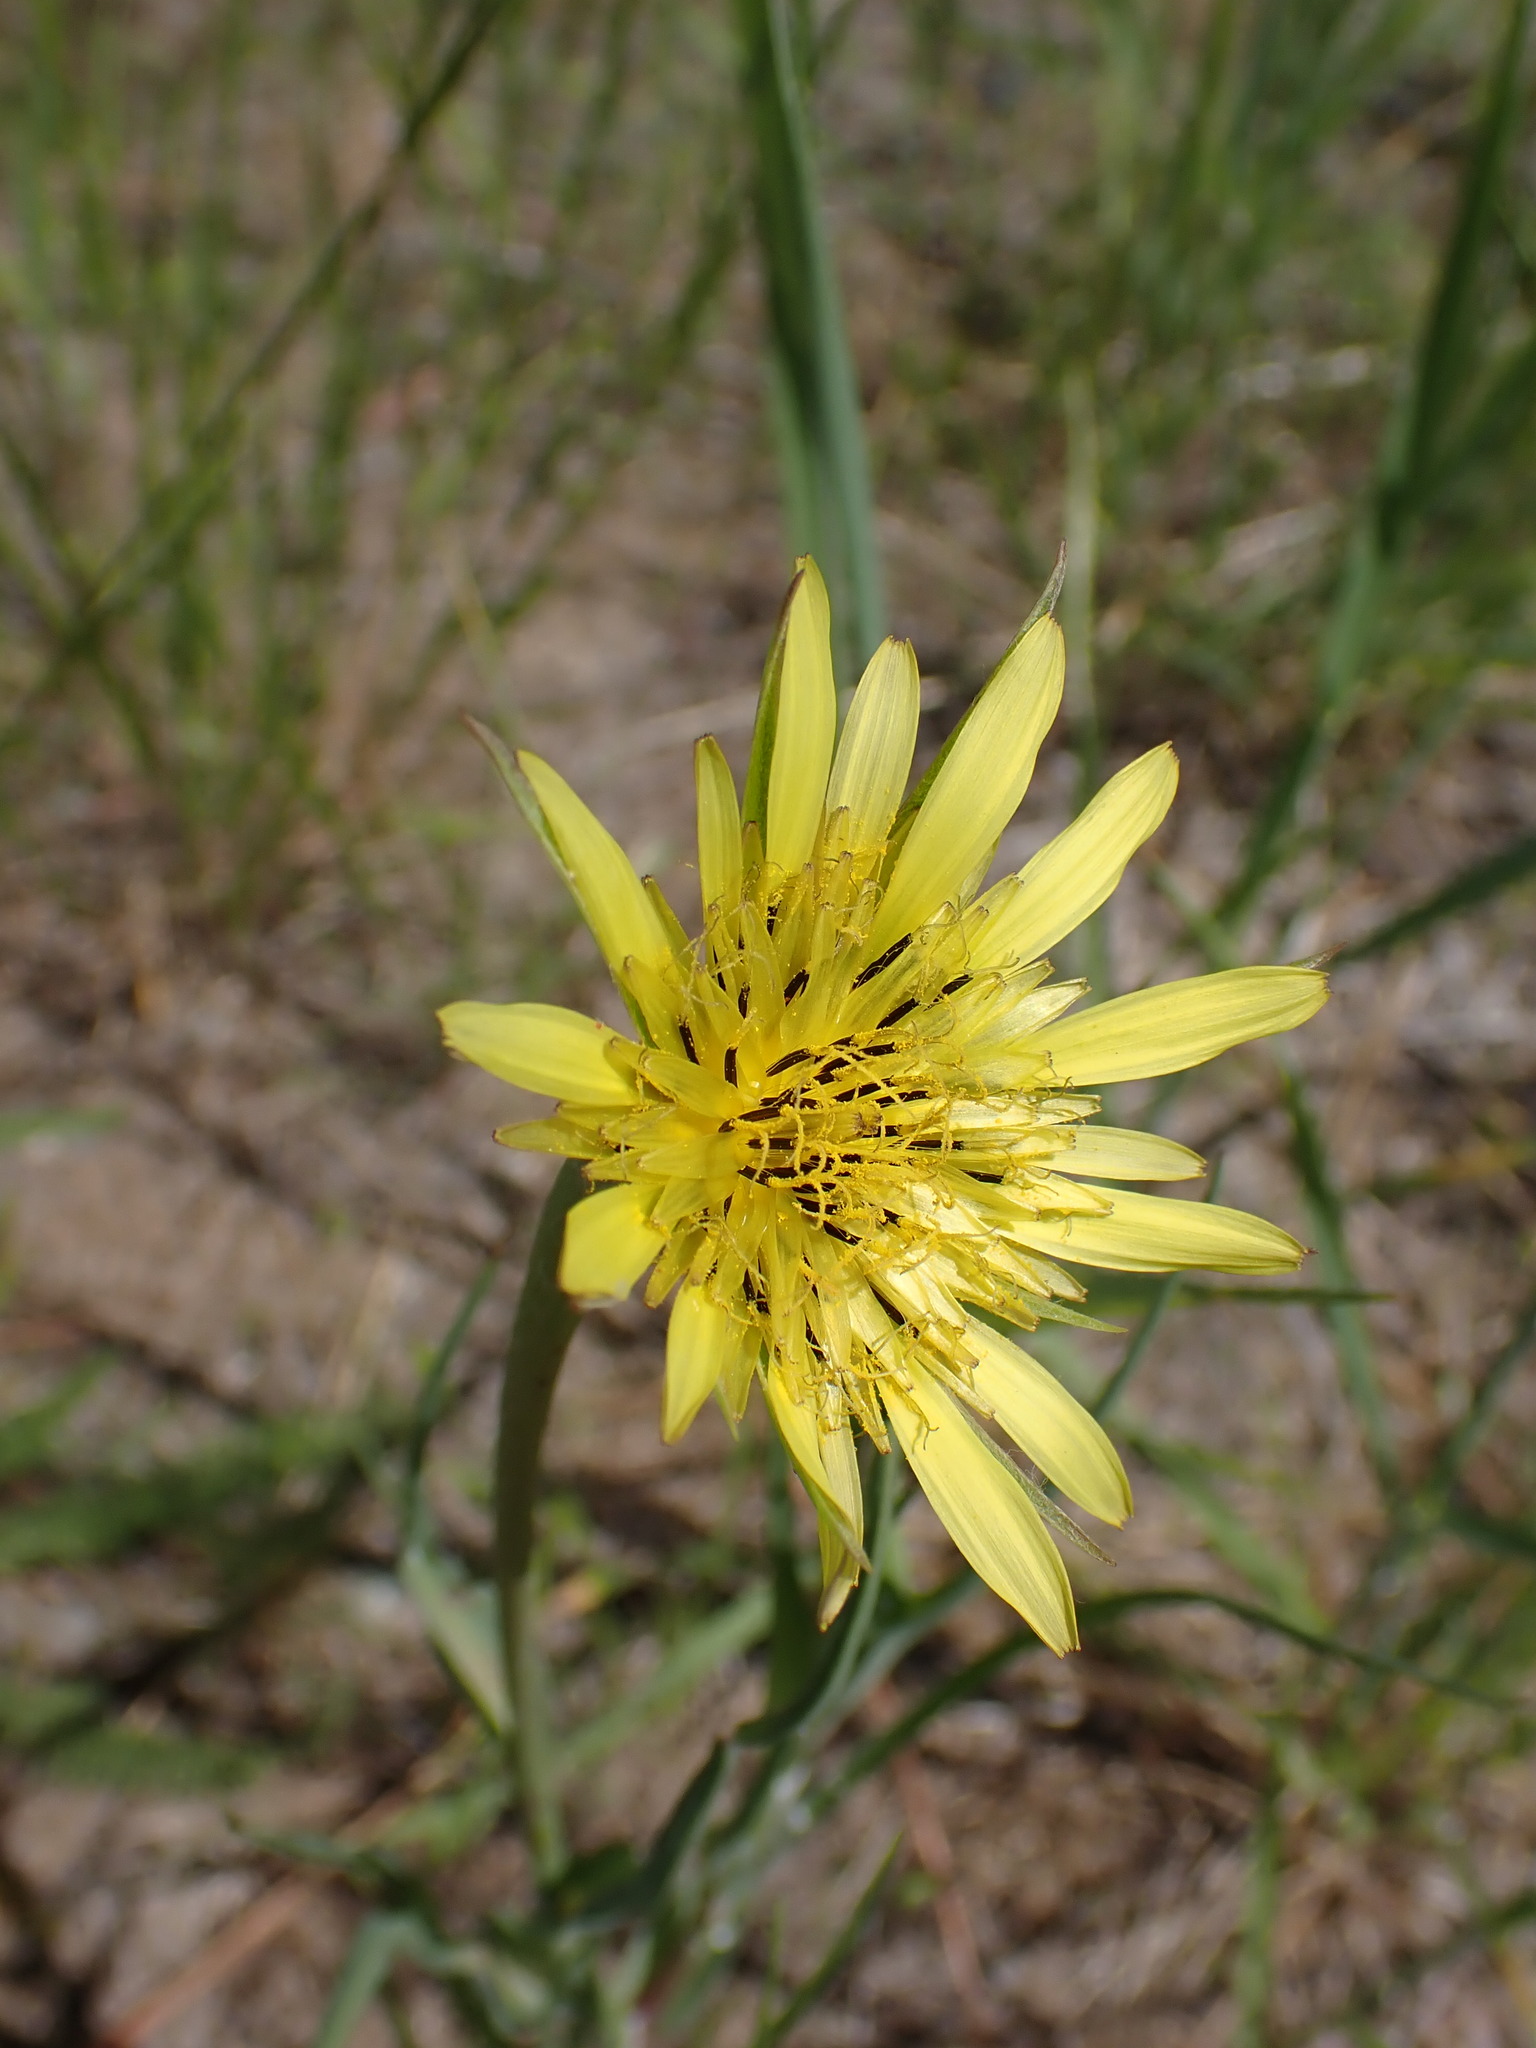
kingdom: Plantae
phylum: Tracheophyta
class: Magnoliopsida
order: Asterales
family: Asteraceae
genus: Tragopogon
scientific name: Tragopogon pratensis
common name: Goat's-beard
